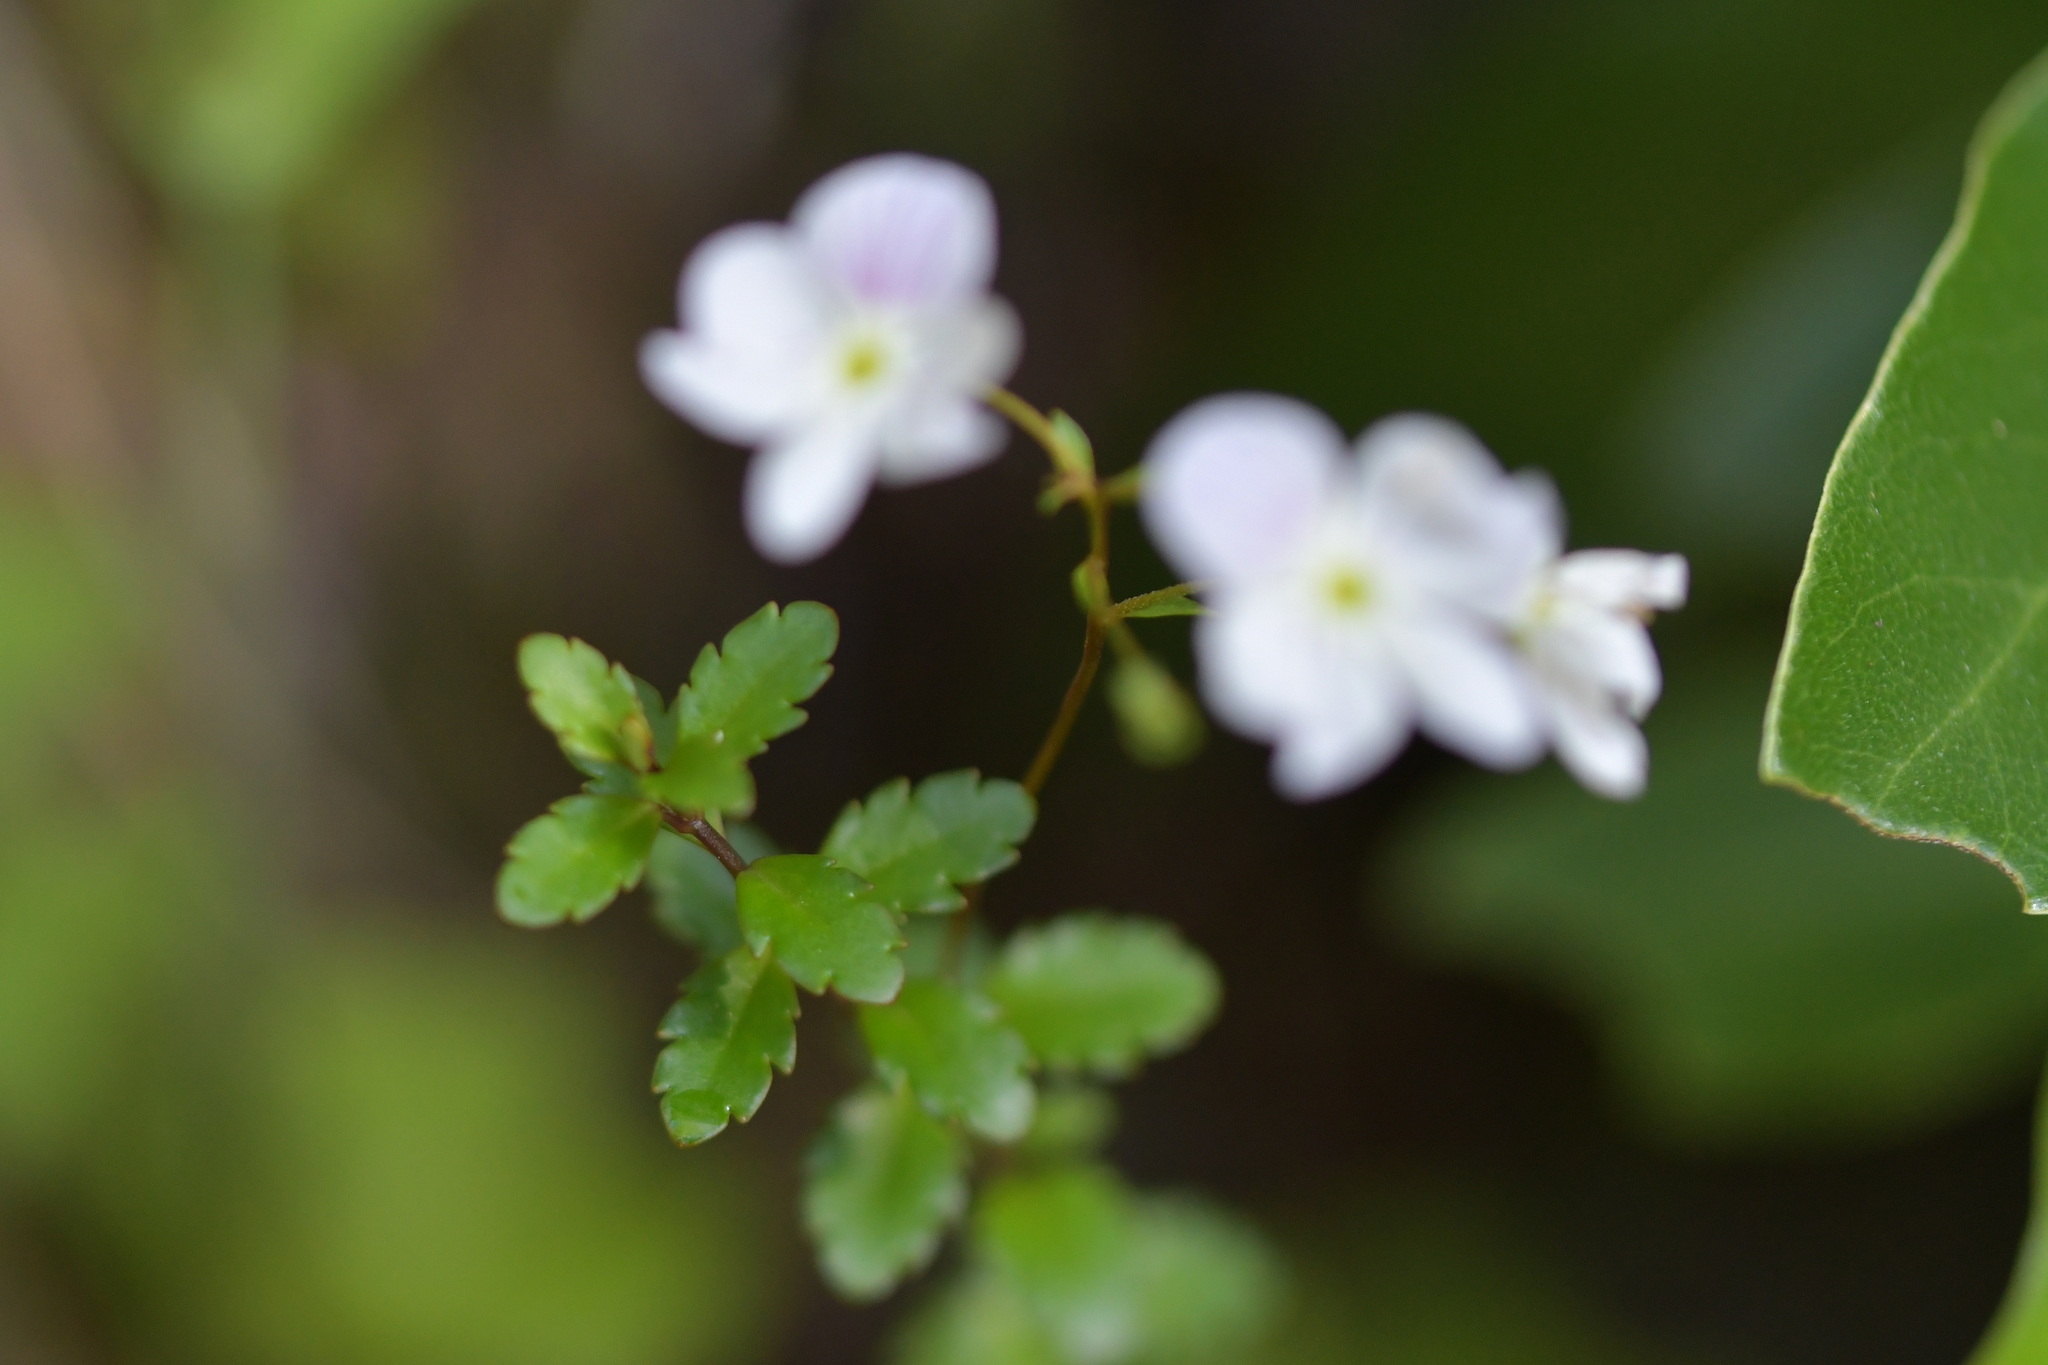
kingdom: Plantae
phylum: Tracheophyta
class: Magnoliopsida
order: Lamiales
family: Plantaginaceae
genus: Veronica
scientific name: Veronica lyallii
